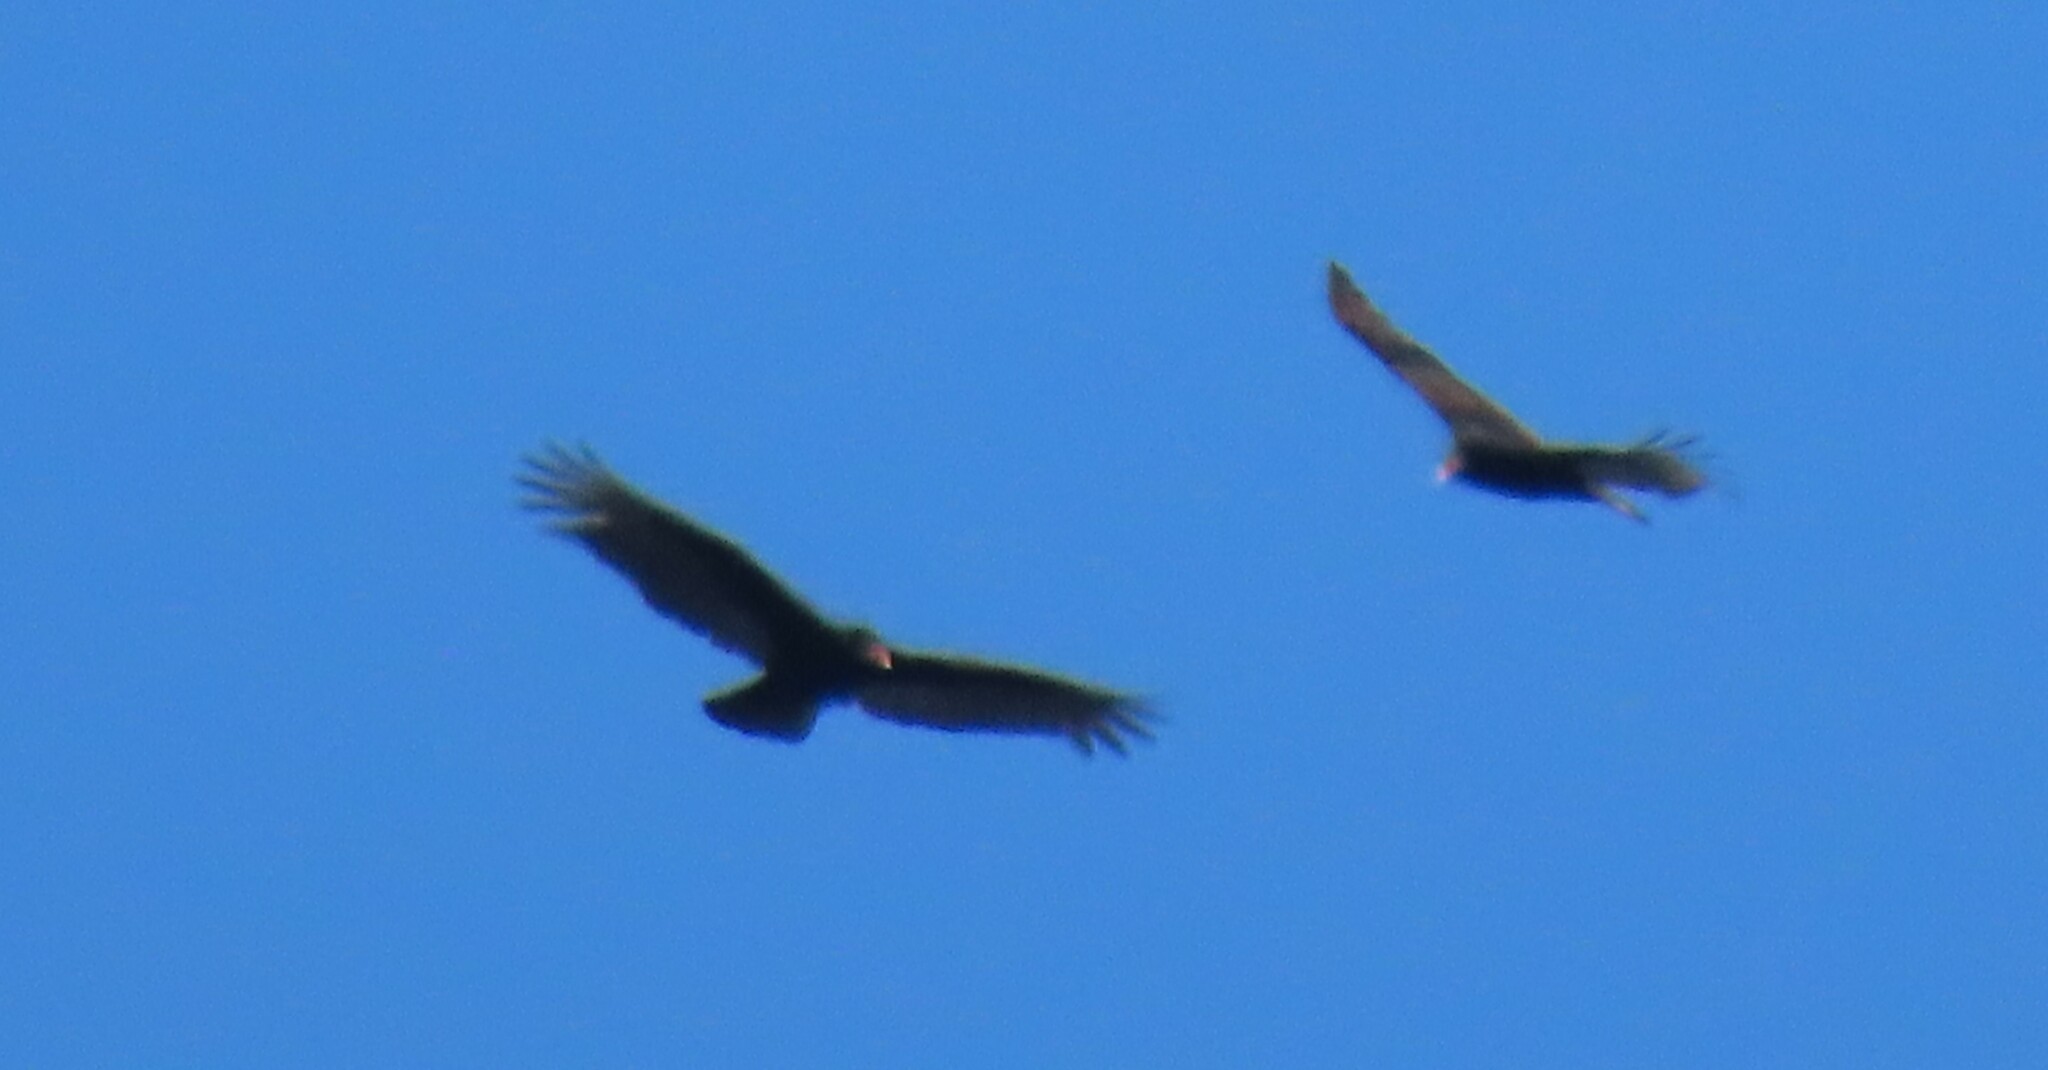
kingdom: Animalia
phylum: Chordata
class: Aves
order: Accipitriformes
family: Cathartidae
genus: Cathartes
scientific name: Cathartes aura
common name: Turkey vulture
